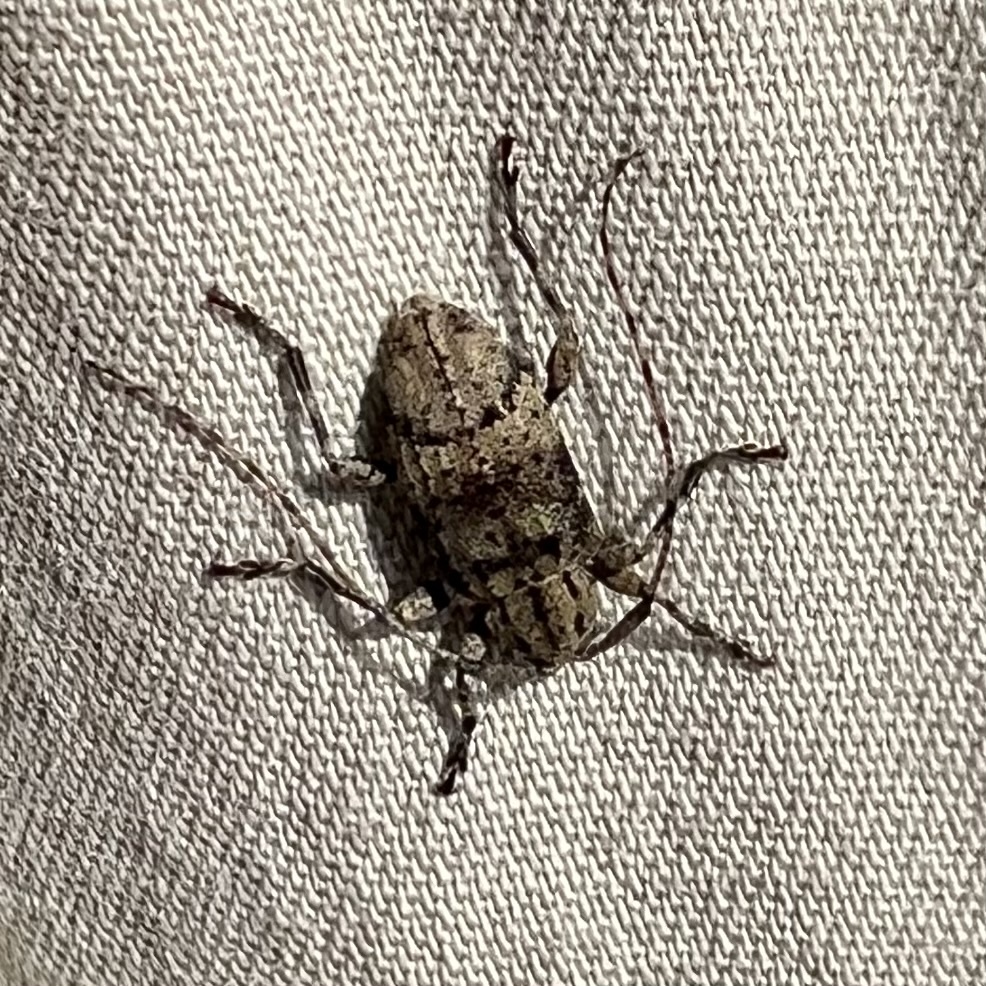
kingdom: Animalia
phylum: Arthropoda
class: Insecta
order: Coleoptera
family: Cerambycidae
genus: Astylopsis
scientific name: Astylopsis fascipennis
